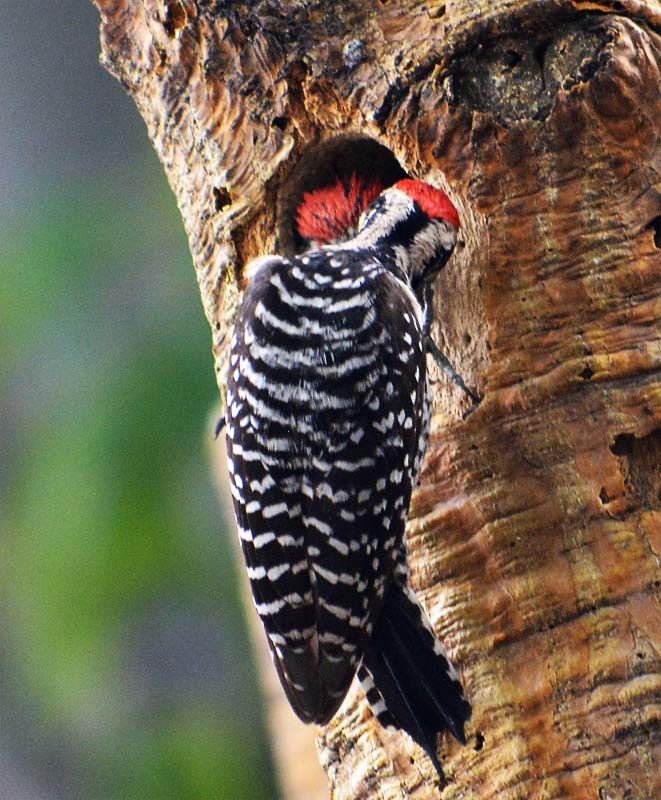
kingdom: Animalia
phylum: Chordata
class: Aves
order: Piciformes
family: Picidae
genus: Dryobates
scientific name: Dryobates scalaris
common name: Ladder-backed woodpecker
